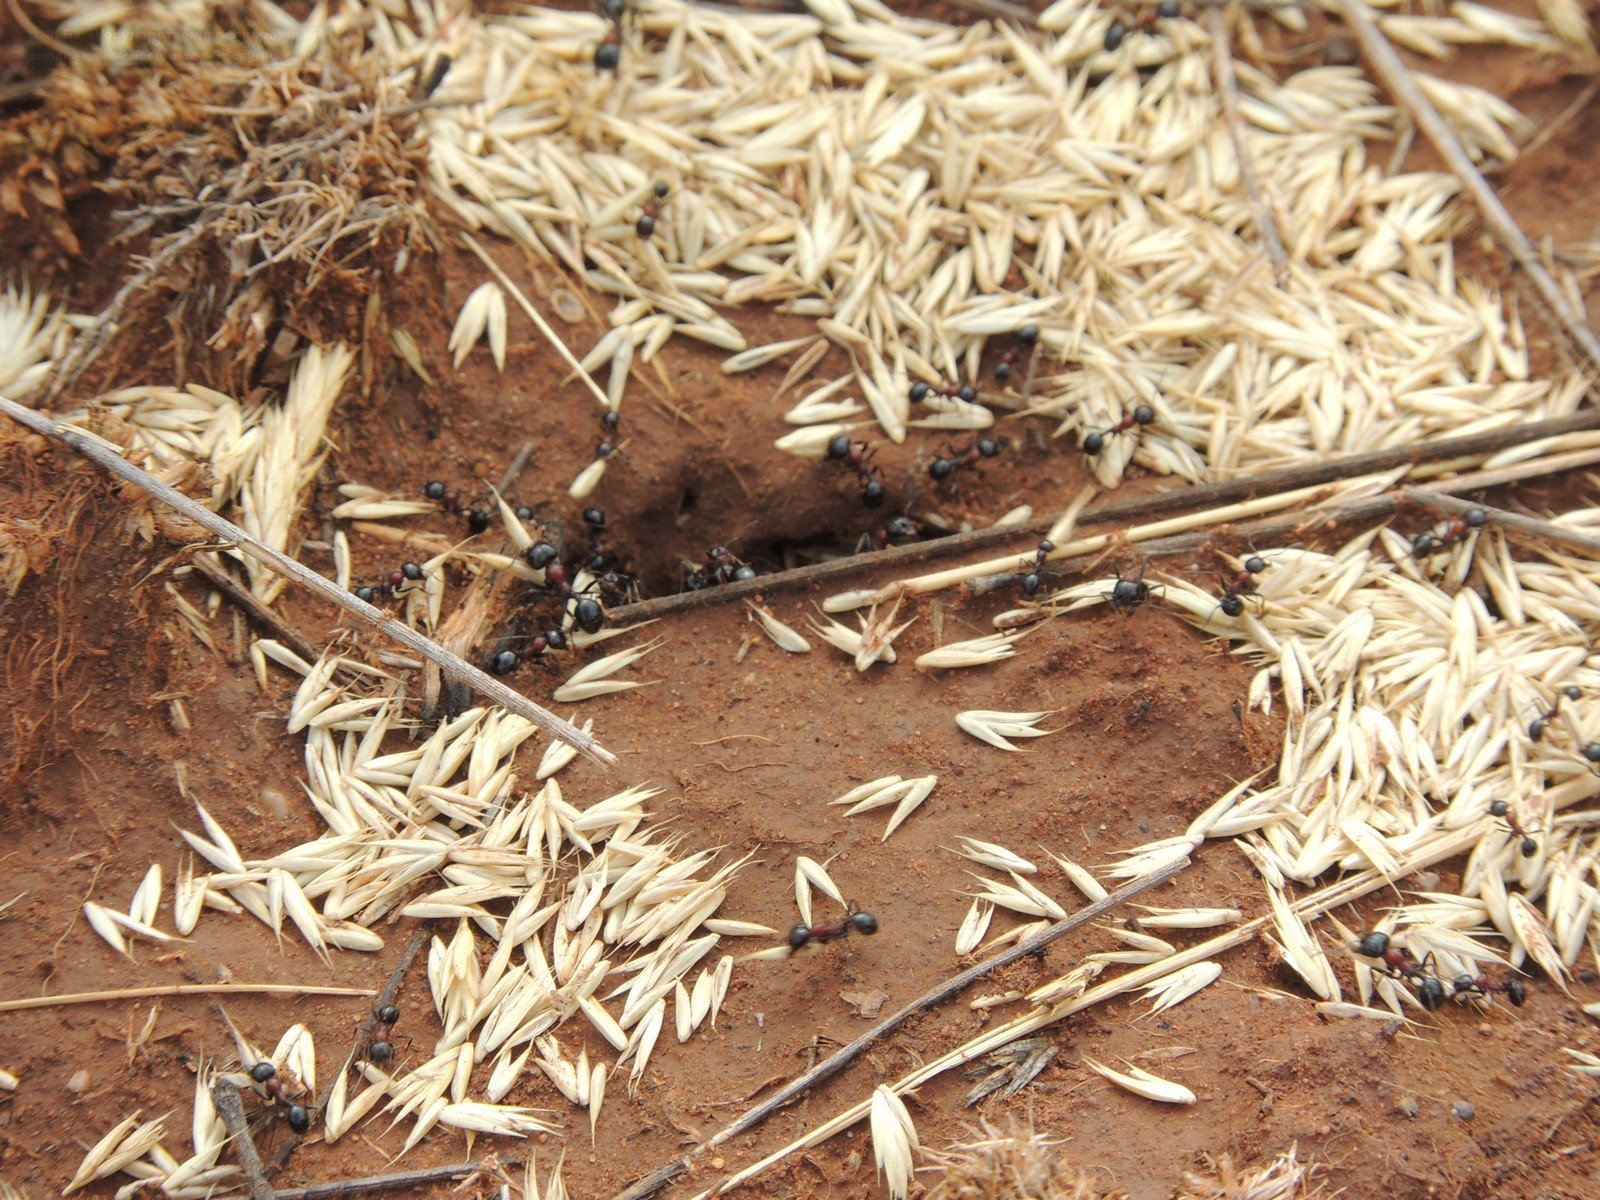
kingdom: Animalia
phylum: Arthropoda
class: Insecta
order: Hymenoptera
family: Formicidae
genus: Messor
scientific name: Messor denticulatus
